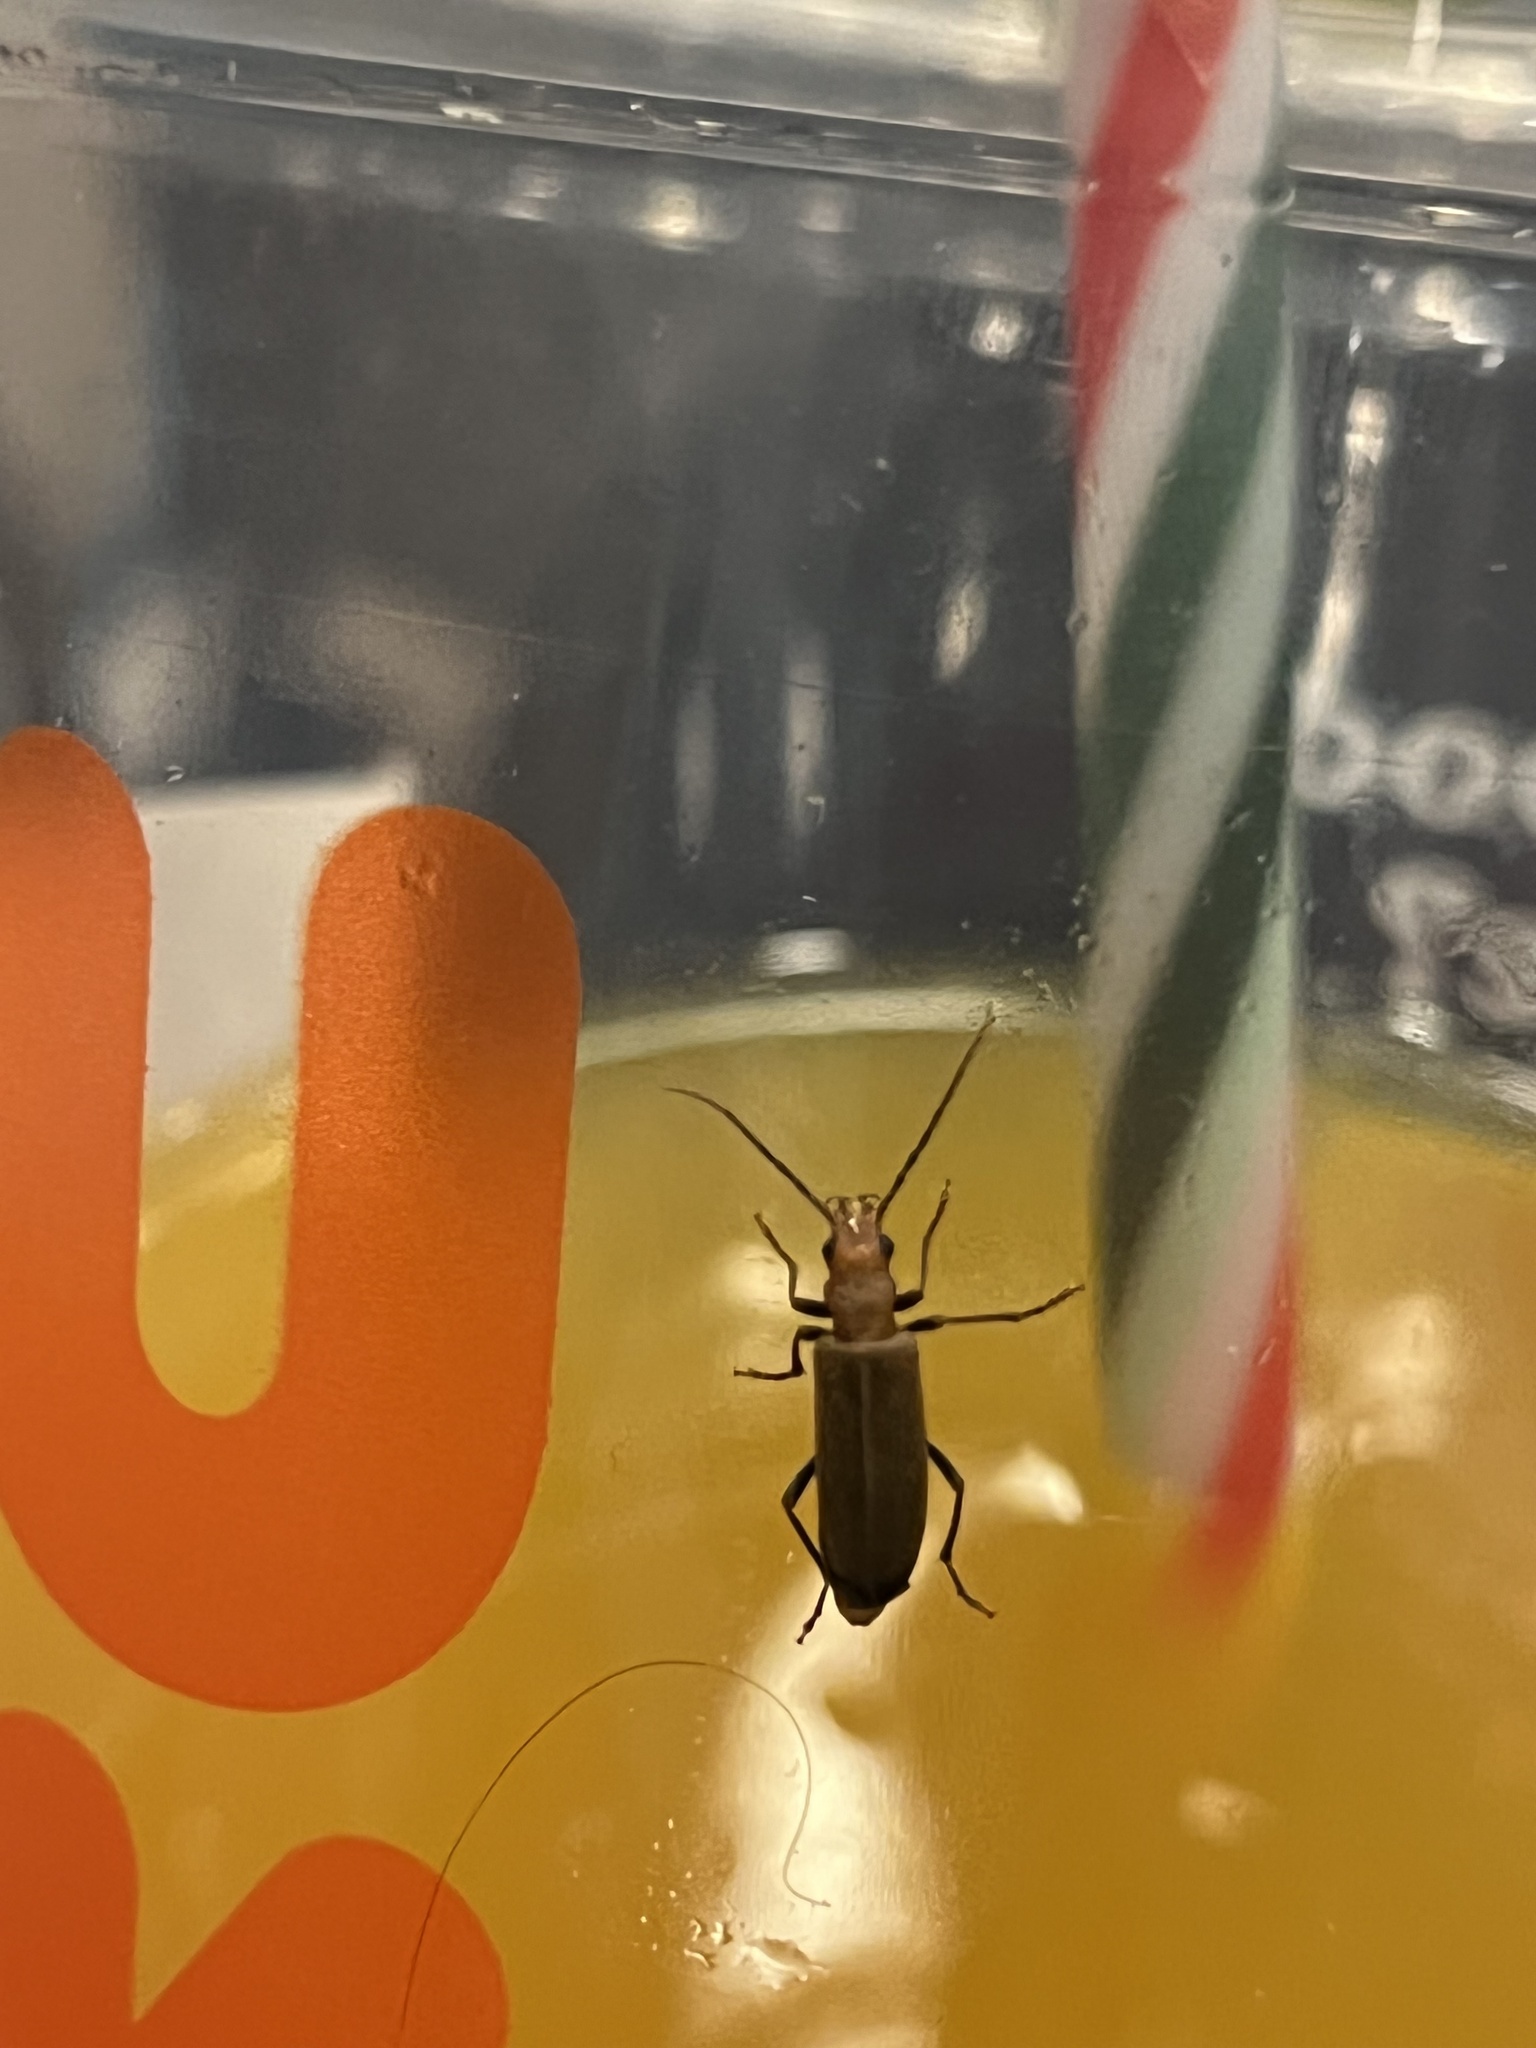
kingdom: Animalia
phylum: Arthropoda
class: Insecta
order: Coleoptera
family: Oedemeridae
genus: Nacerdes
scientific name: Nacerdes melanura
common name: Wharf borer
